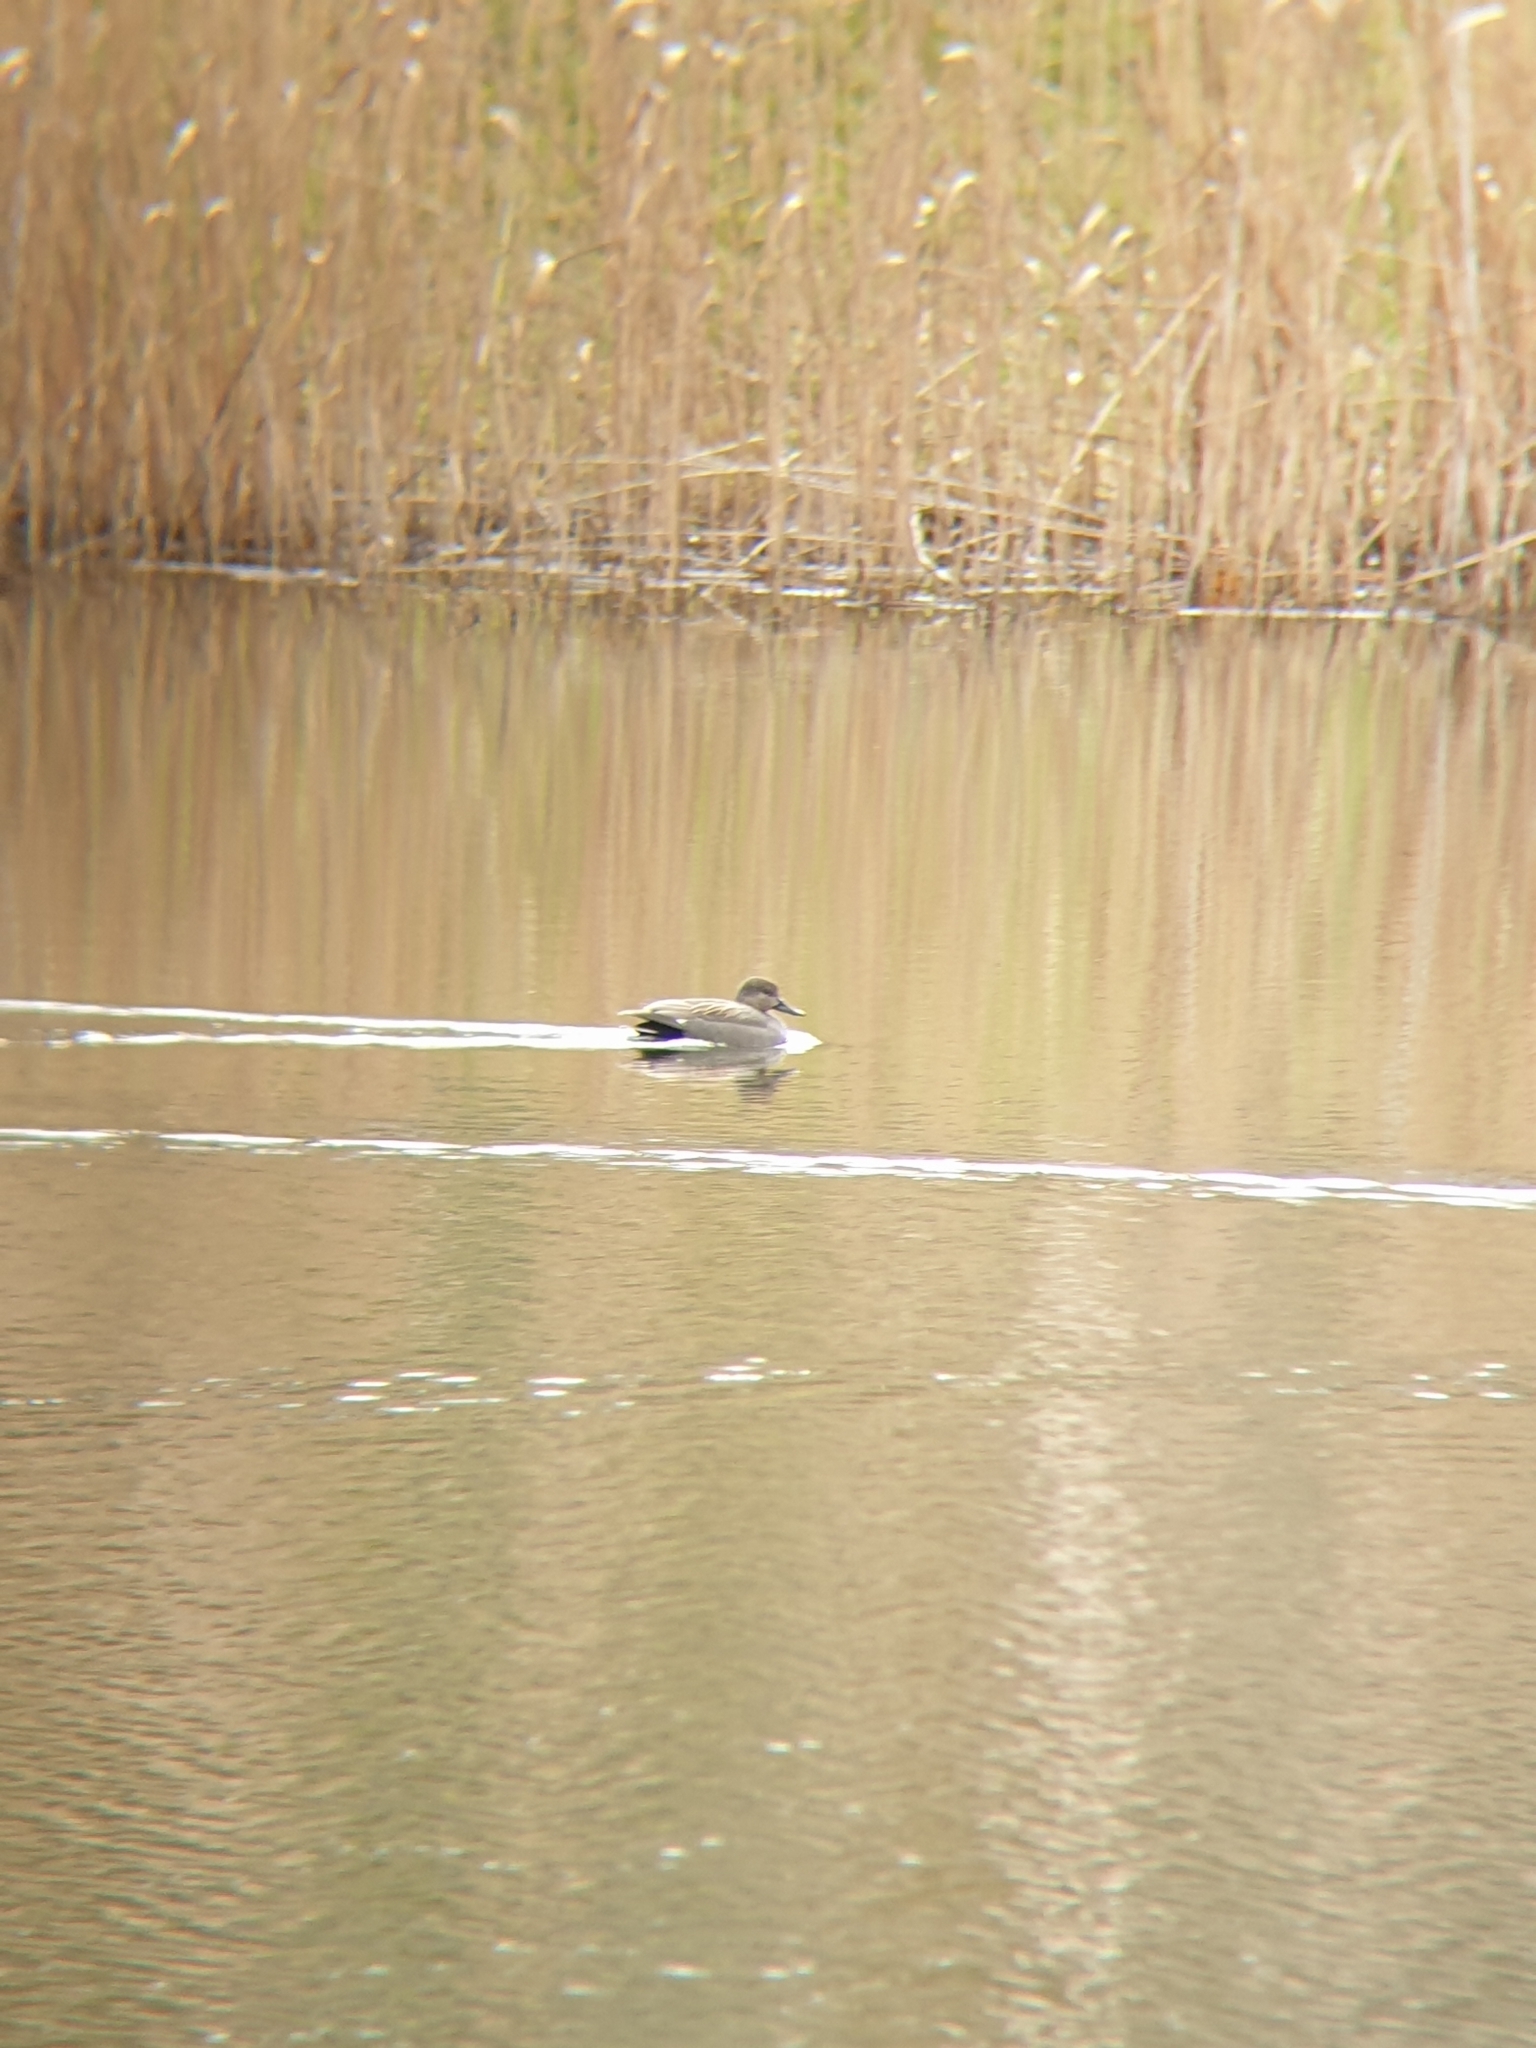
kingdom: Animalia
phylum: Chordata
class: Aves
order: Anseriformes
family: Anatidae
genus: Mareca
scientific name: Mareca strepera
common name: Gadwall
